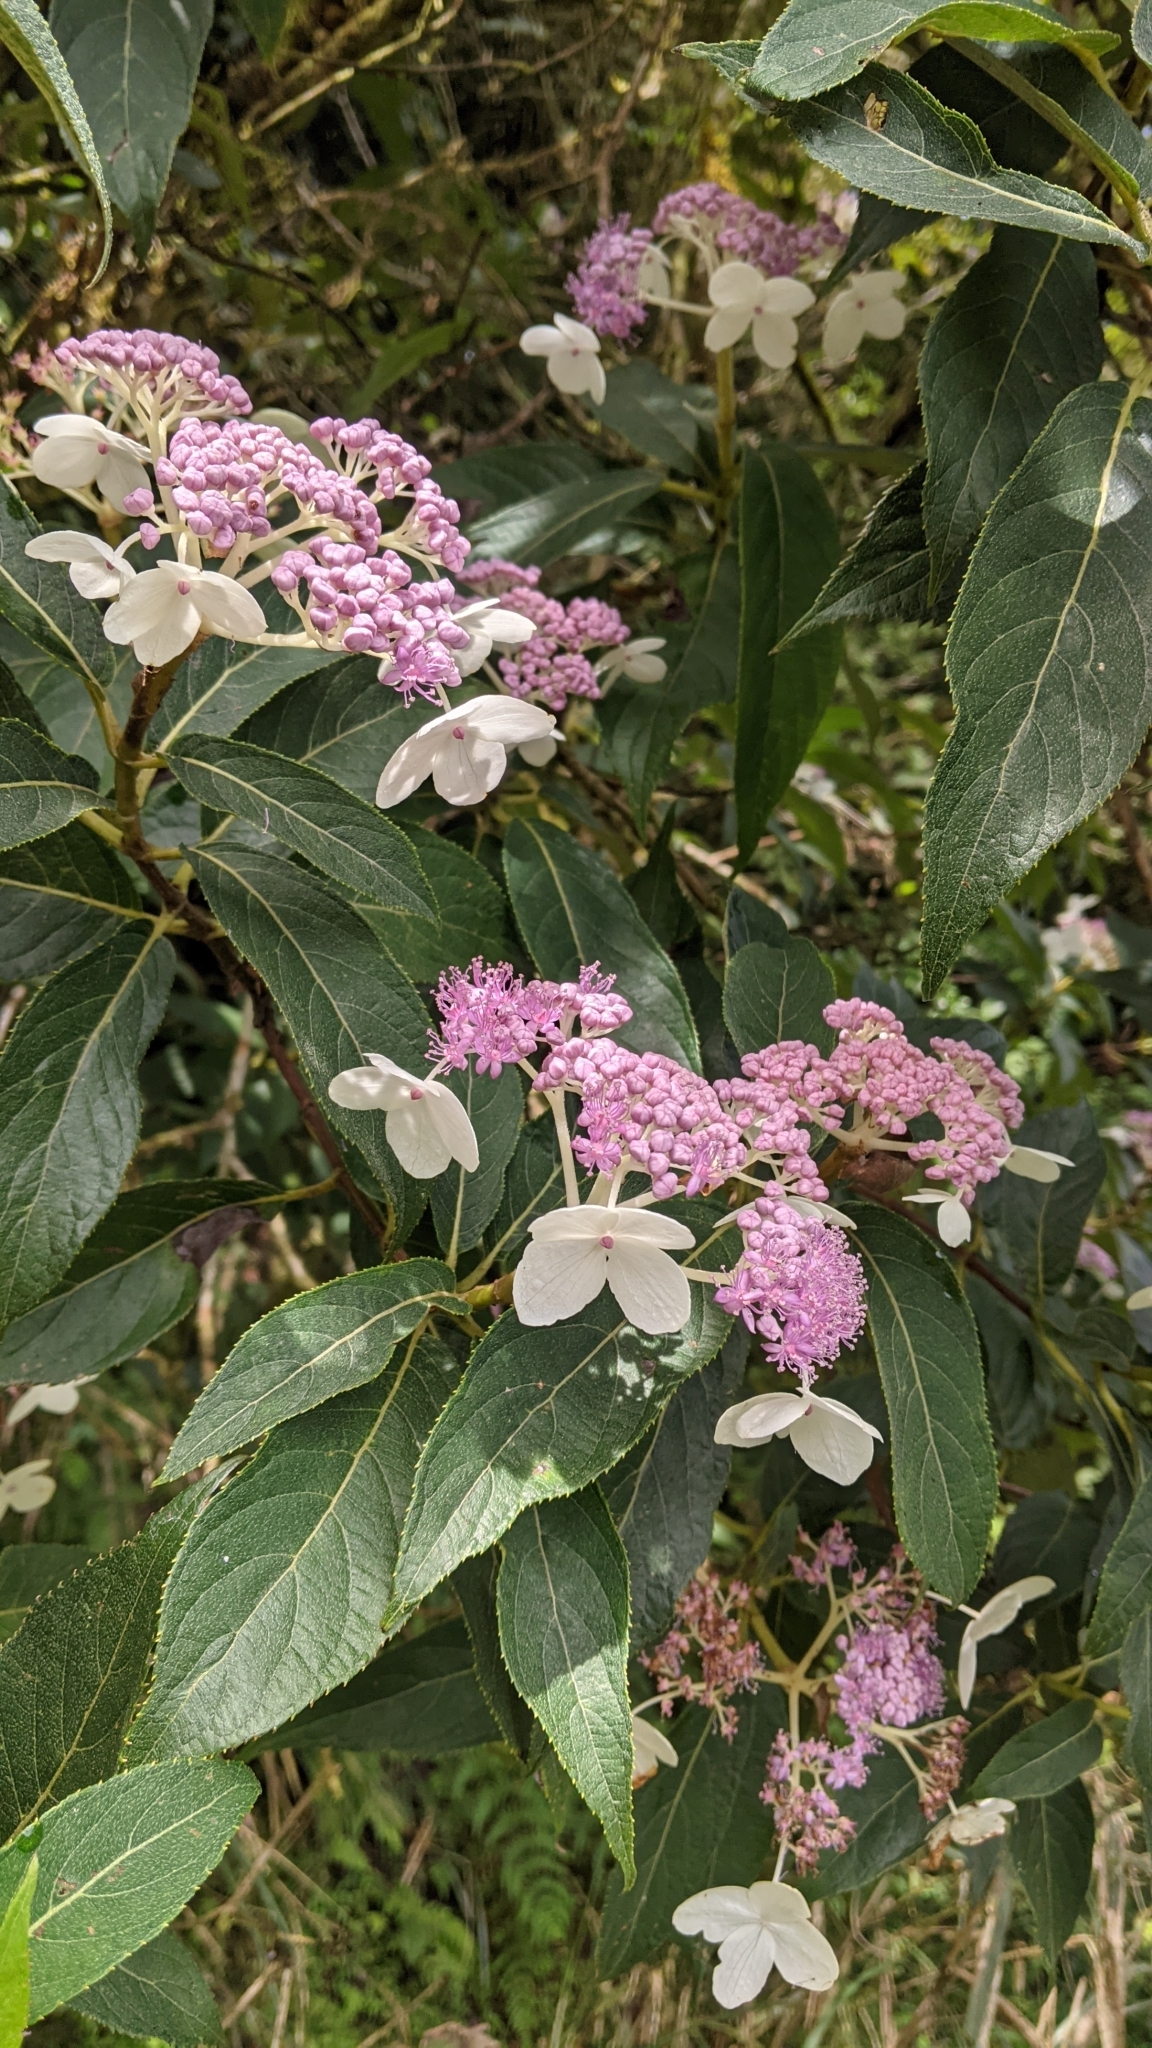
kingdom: Plantae
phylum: Tracheophyta
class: Magnoliopsida
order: Cornales
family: Hydrangeaceae
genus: Hydrangea
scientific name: Hydrangea longifolia
